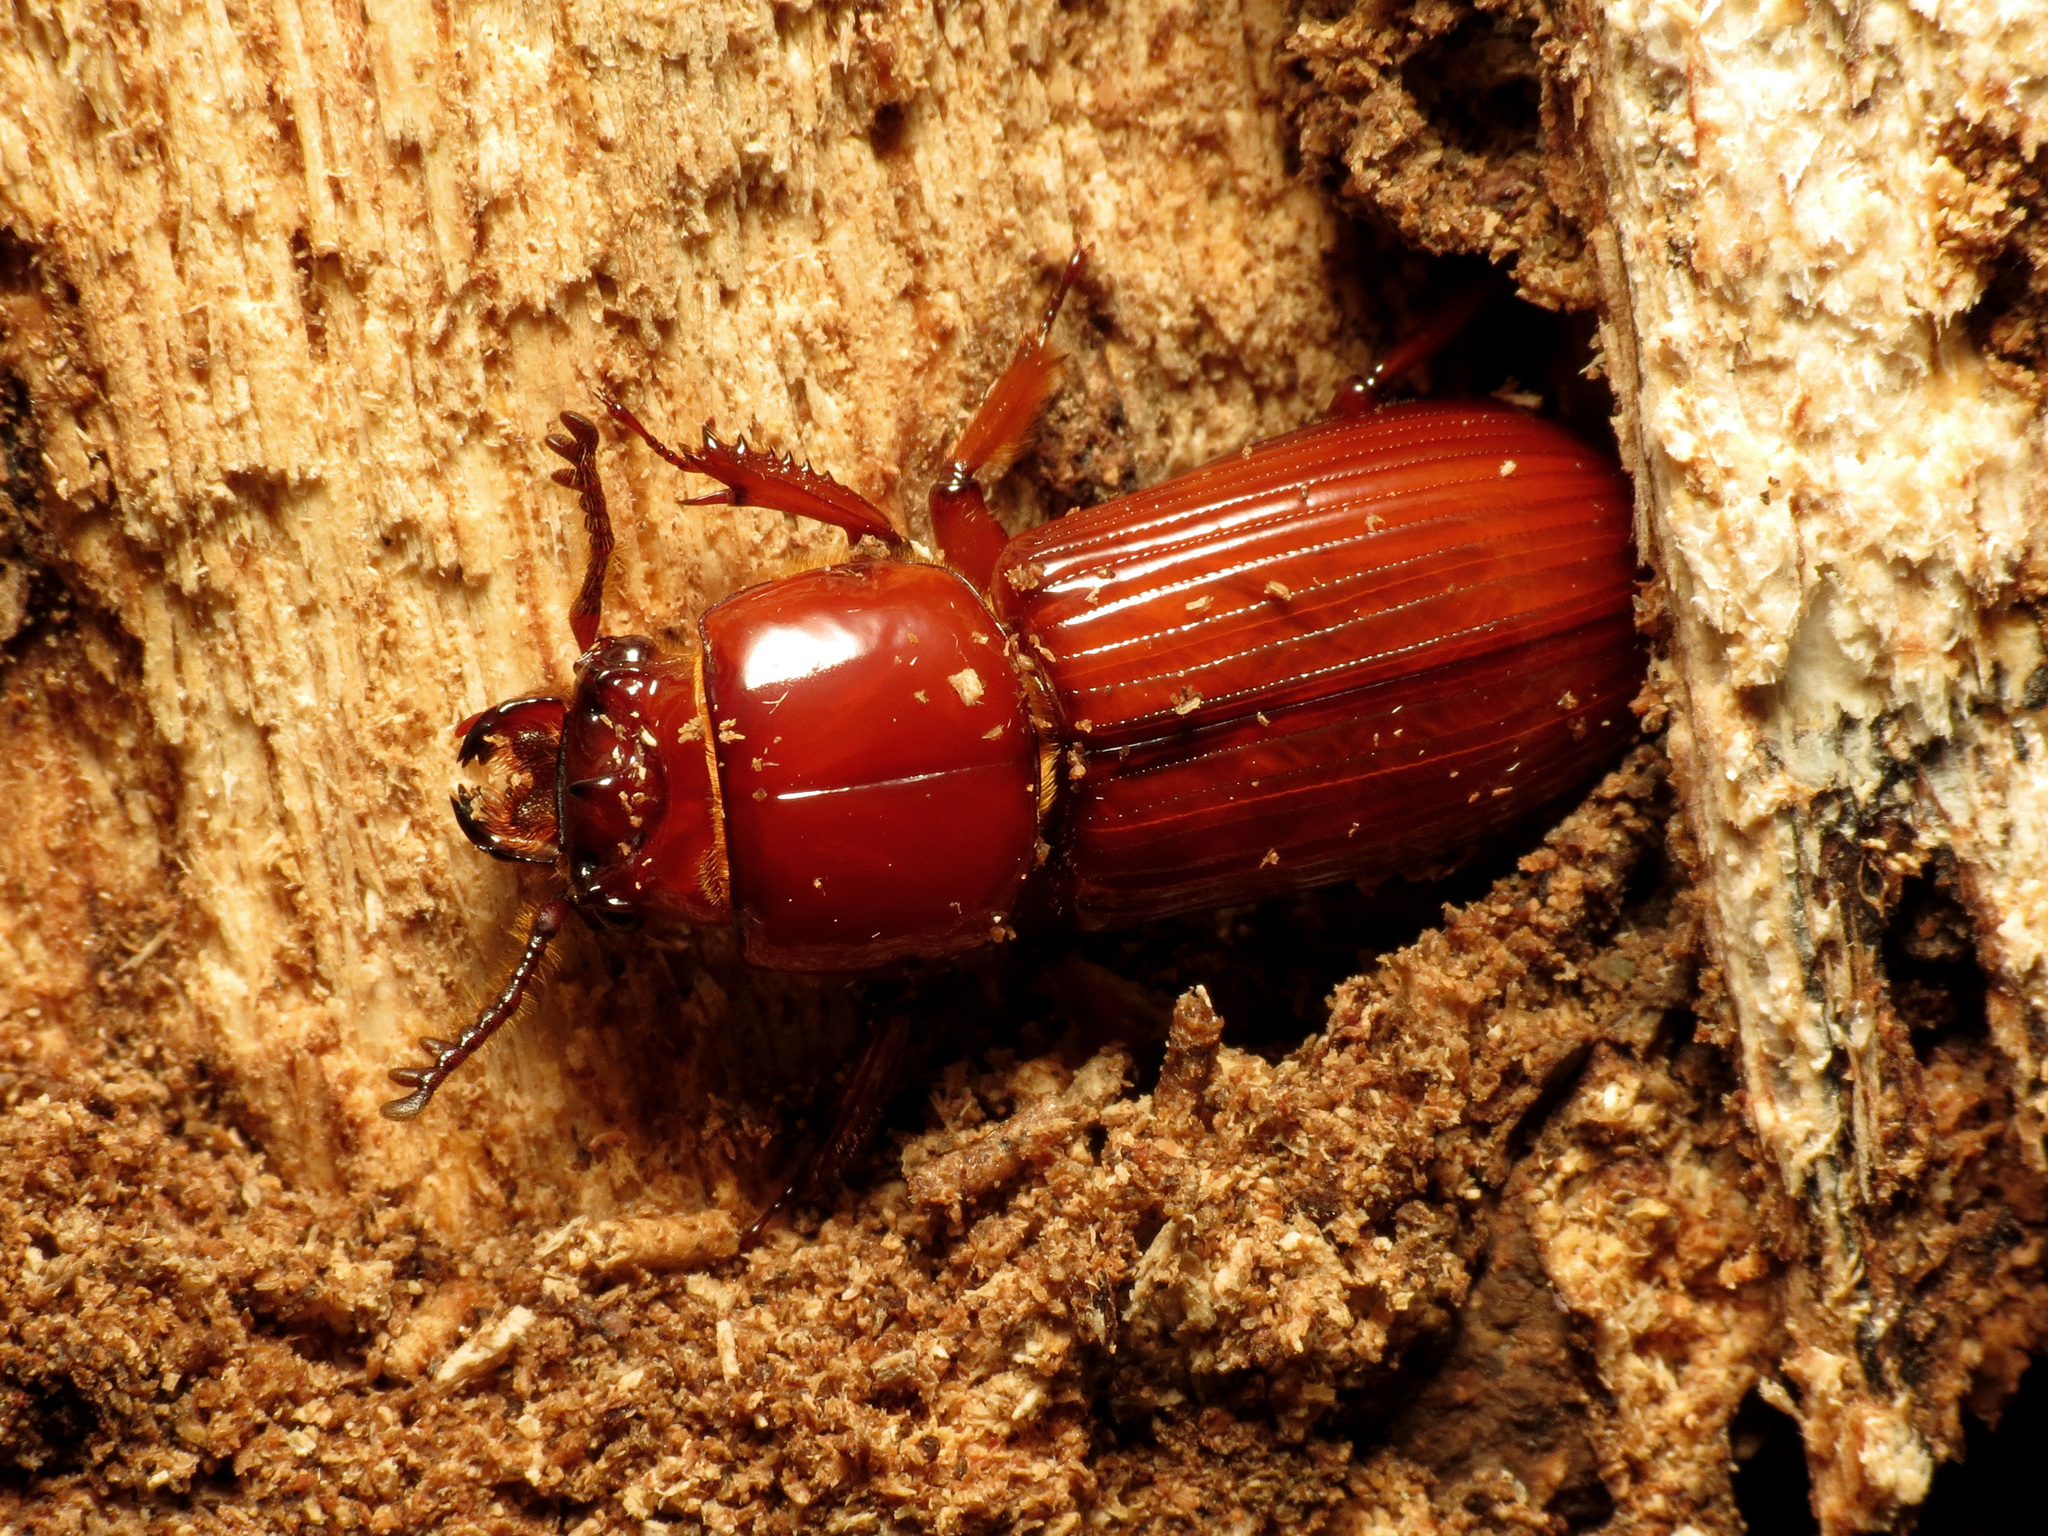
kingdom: Animalia
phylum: Arthropoda
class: Insecta
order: Coleoptera
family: Passalidae
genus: Odontotaenius
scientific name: Odontotaenius disjunctus
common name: Patent leather beetle
